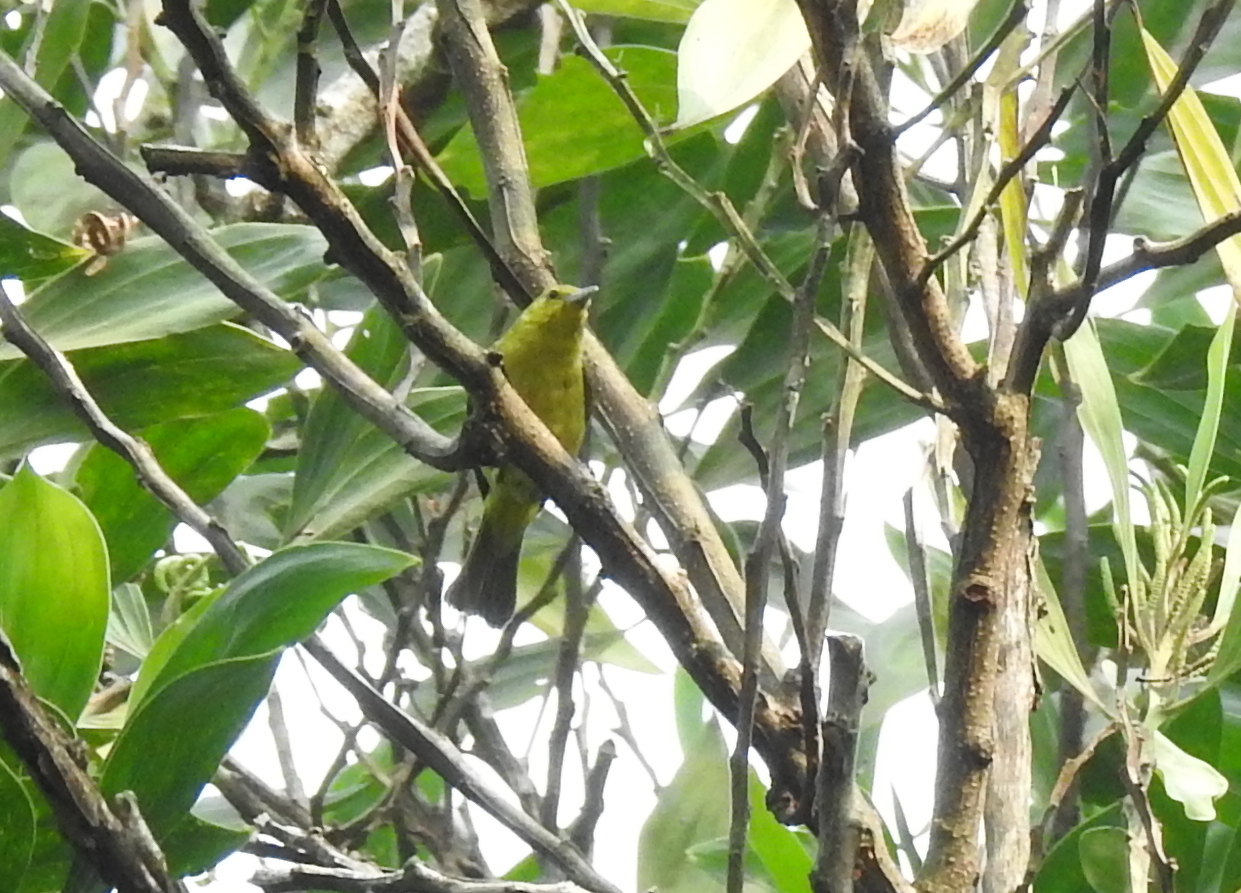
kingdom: Animalia
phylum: Chordata
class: Aves
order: Passeriformes
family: Aegithinidae
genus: Aegithina
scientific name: Aegithina tiphia
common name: Common iora
